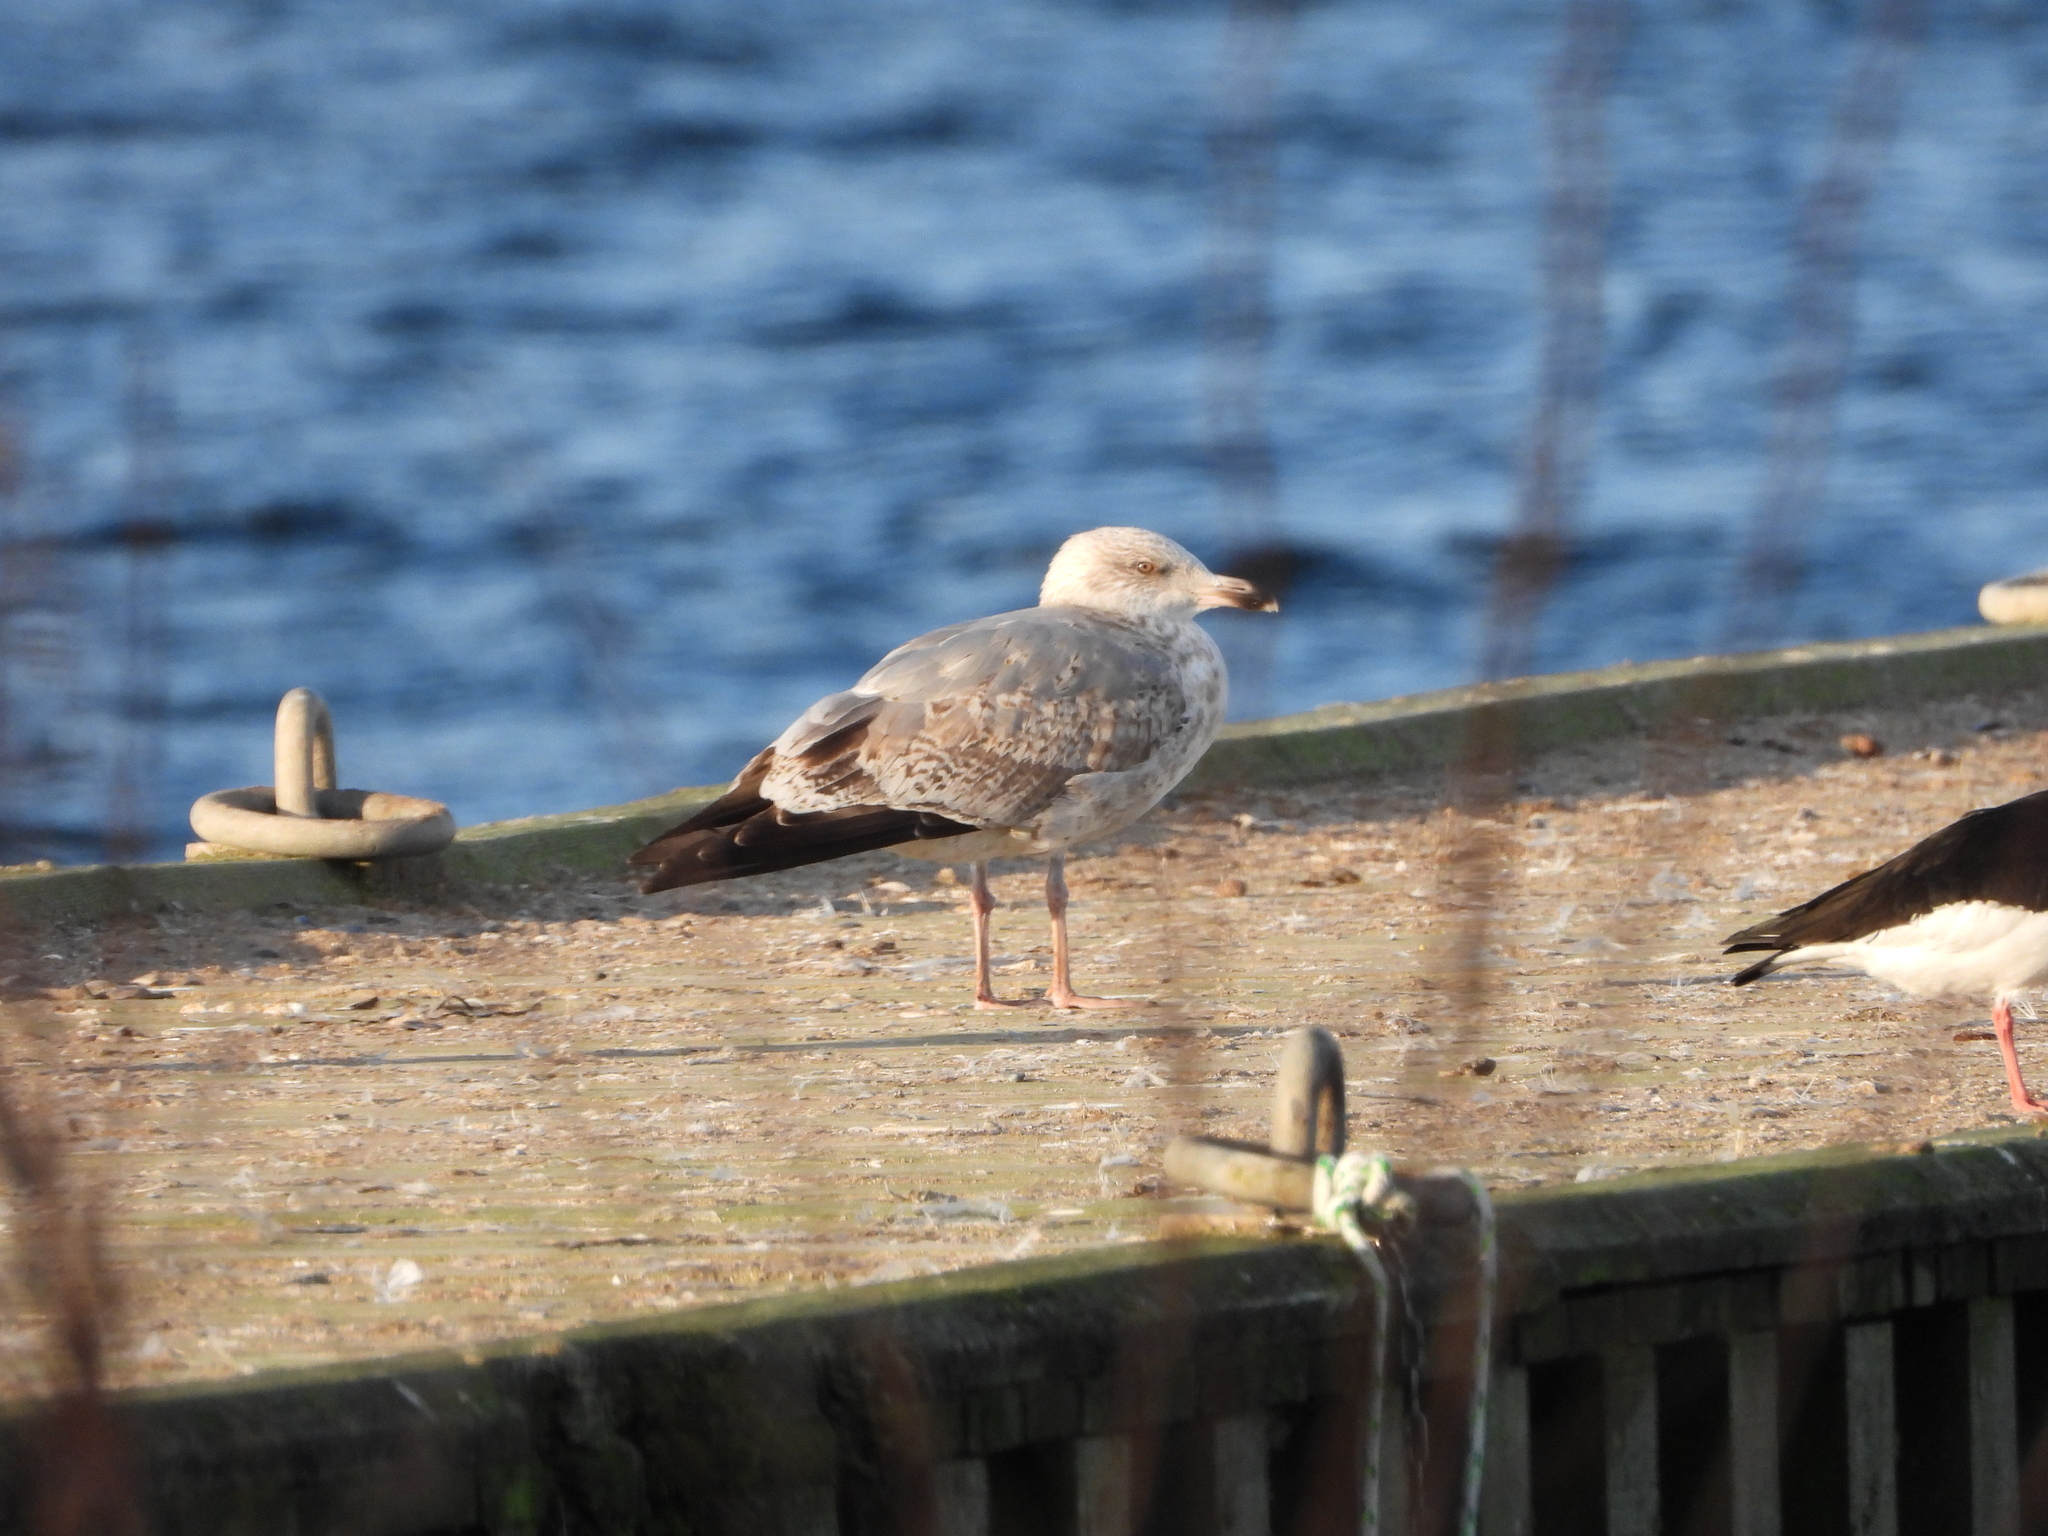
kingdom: Animalia
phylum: Chordata
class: Aves
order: Charadriiformes
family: Laridae
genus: Larus
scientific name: Larus argentatus
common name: Herring gull
